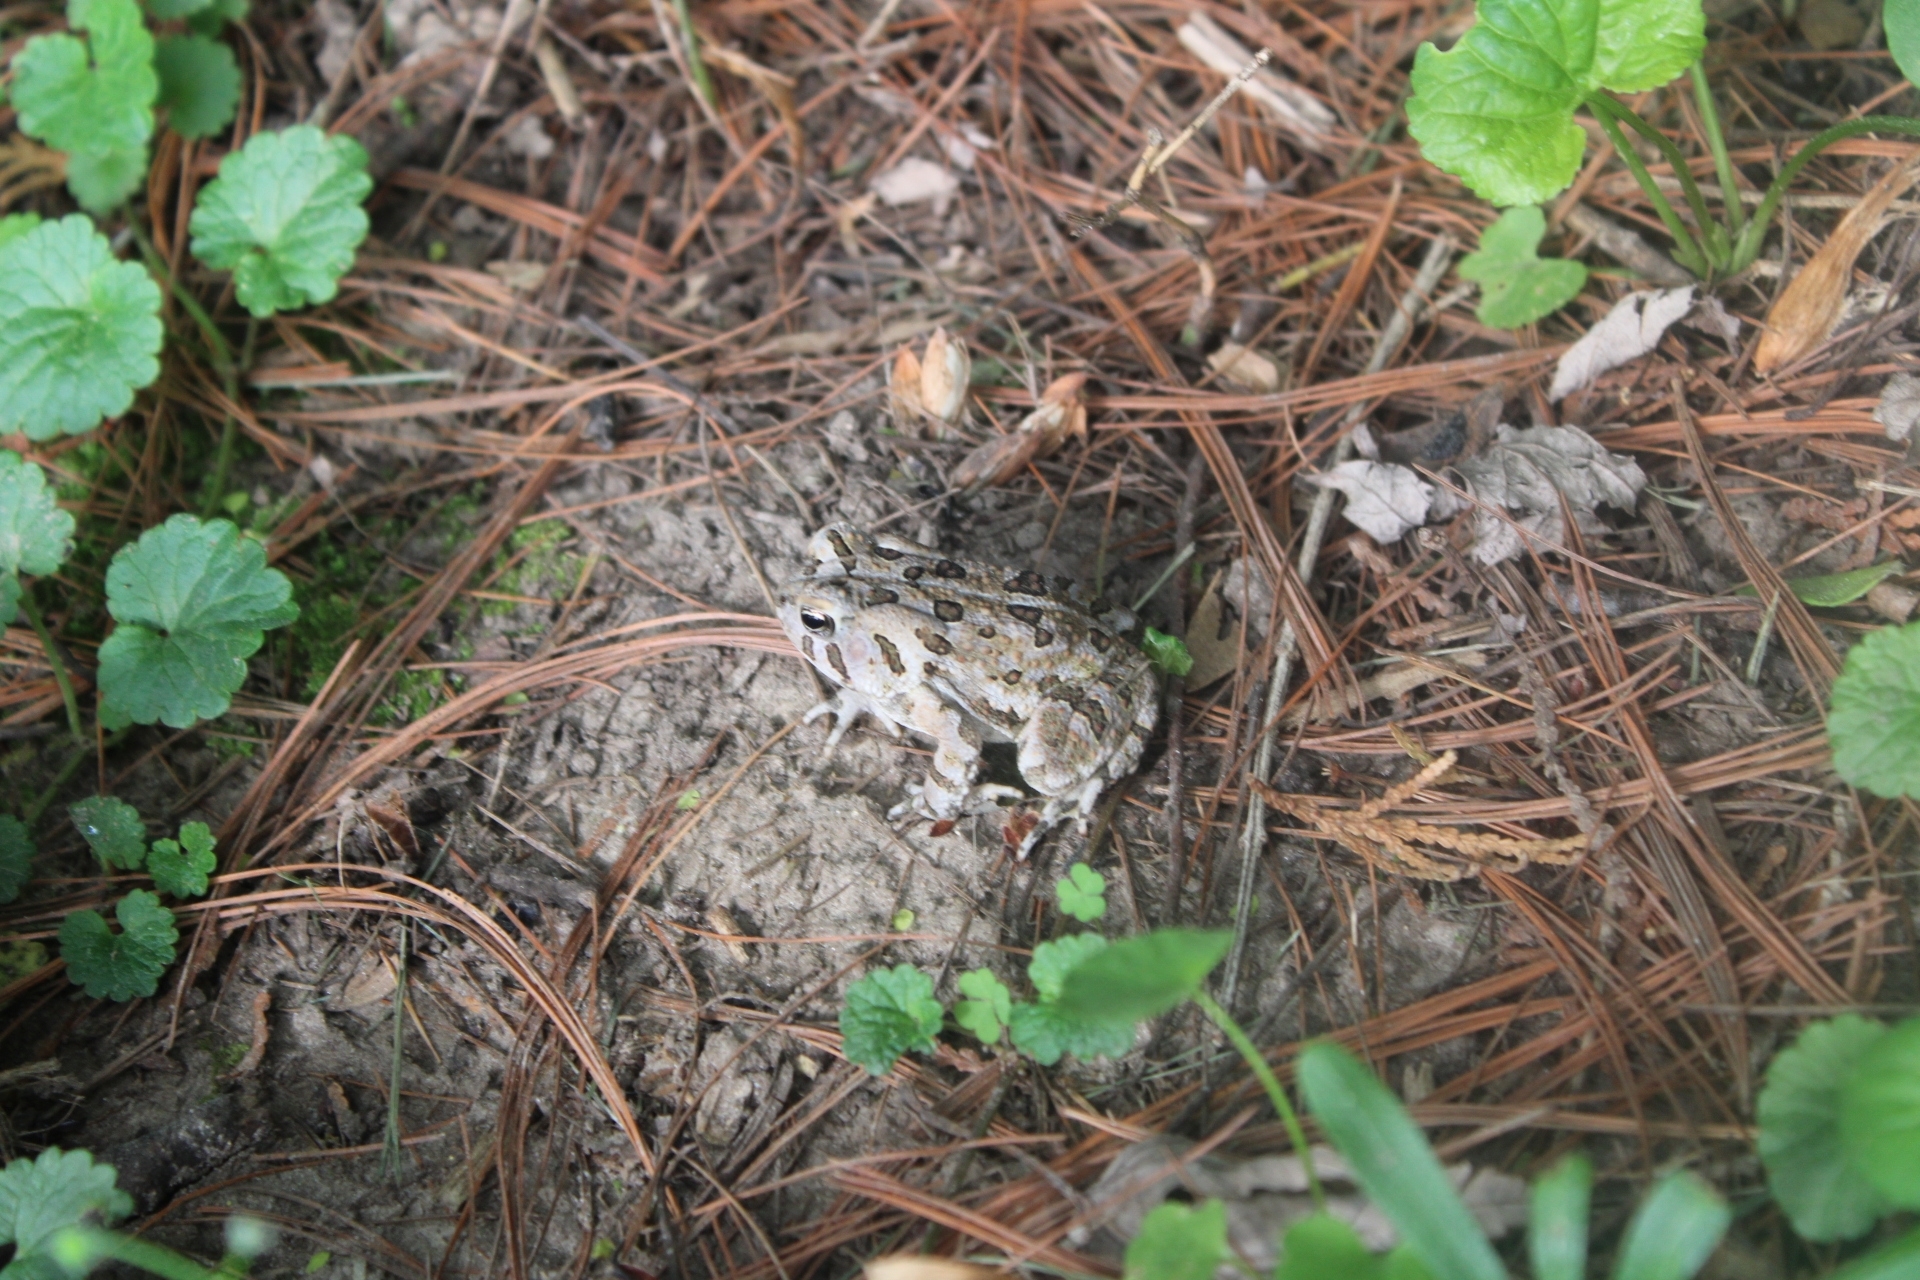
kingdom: Animalia
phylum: Chordata
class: Amphibia
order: Anura
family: Bufonidae
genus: Anaxyrus
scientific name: Anaxyrus fowleri
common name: Fowler's toad
